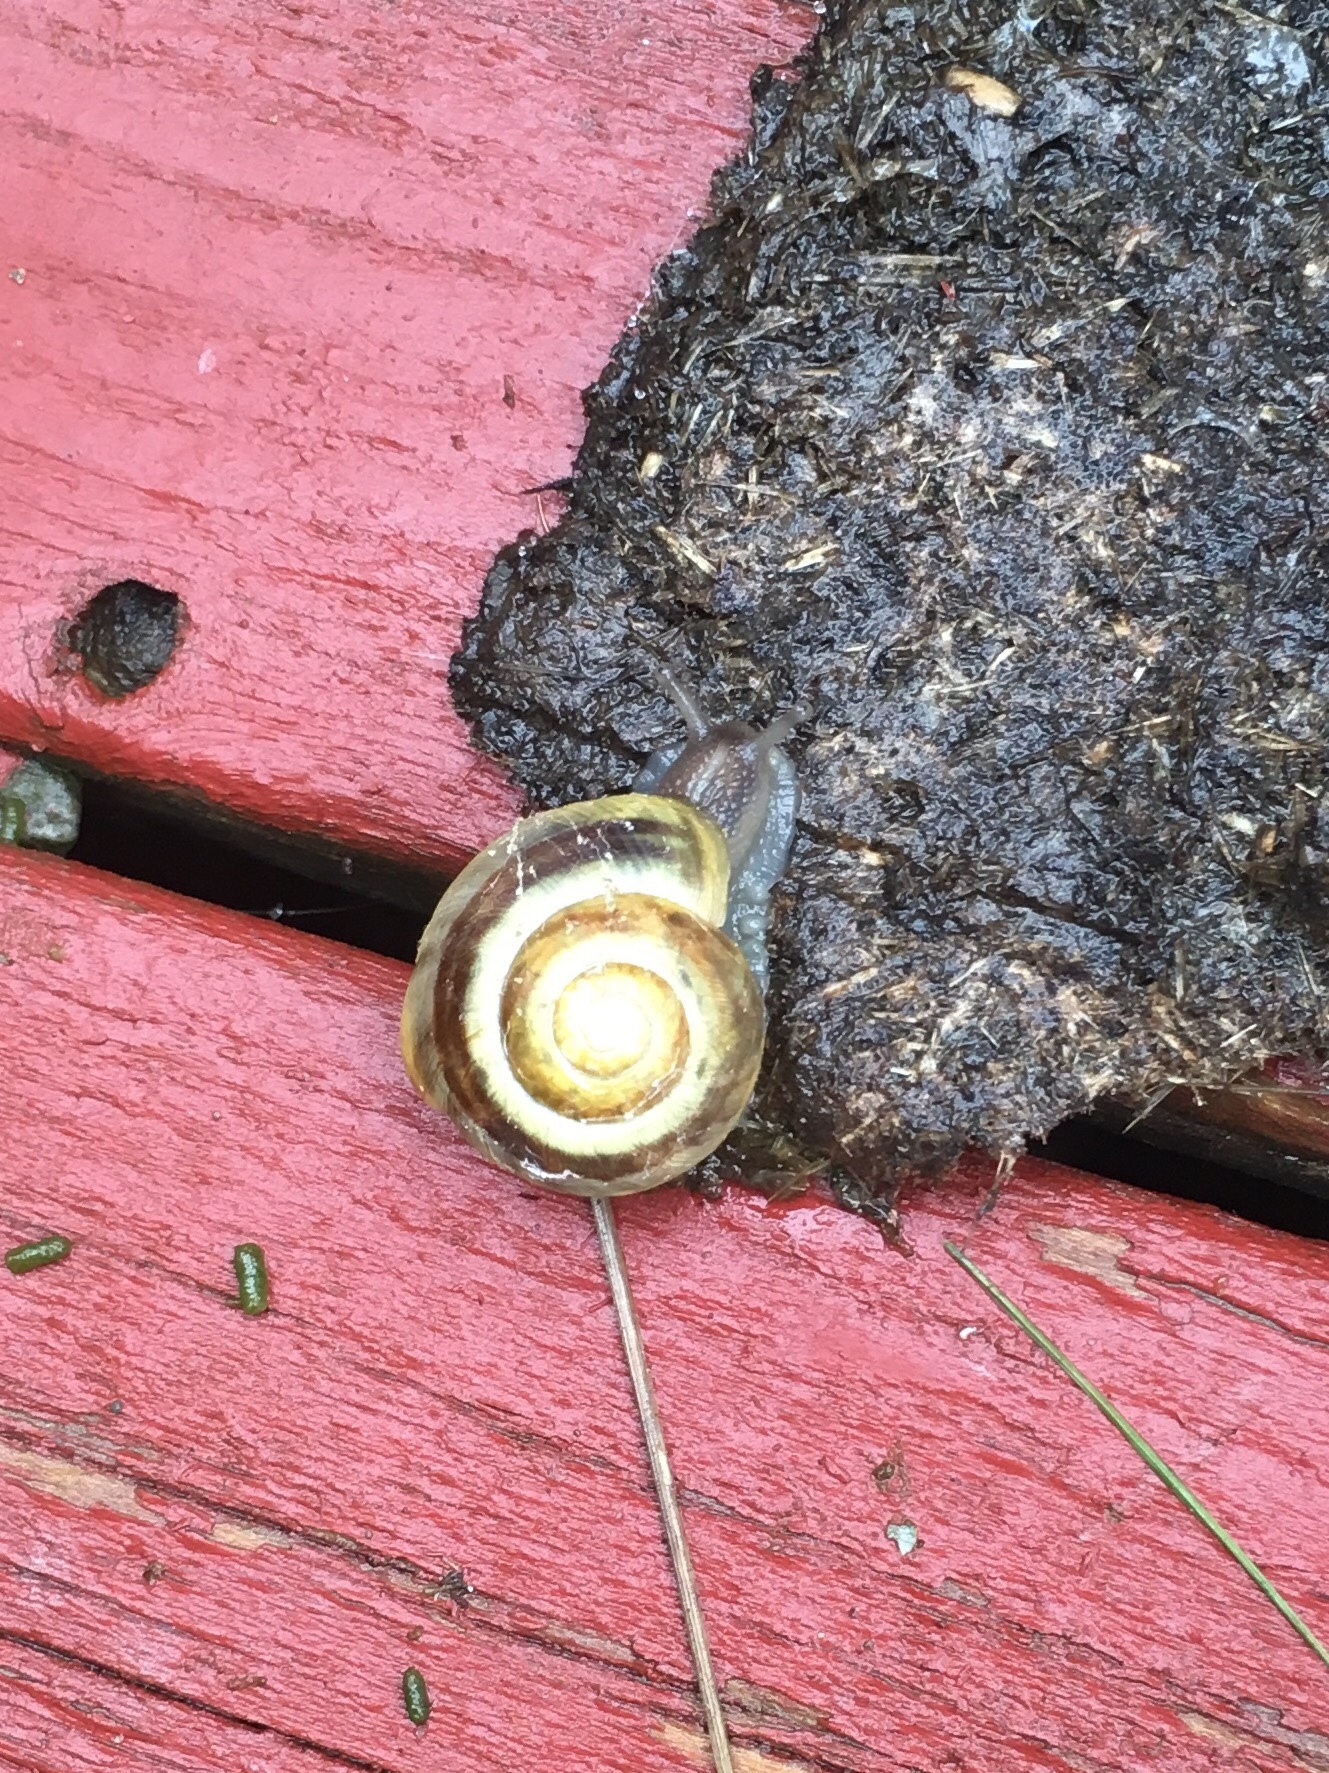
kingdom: Animalia
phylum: Mollusca
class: Gastropoda
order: Stylommatophora
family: Helicidae
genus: Cepaea
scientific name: Cepaea
